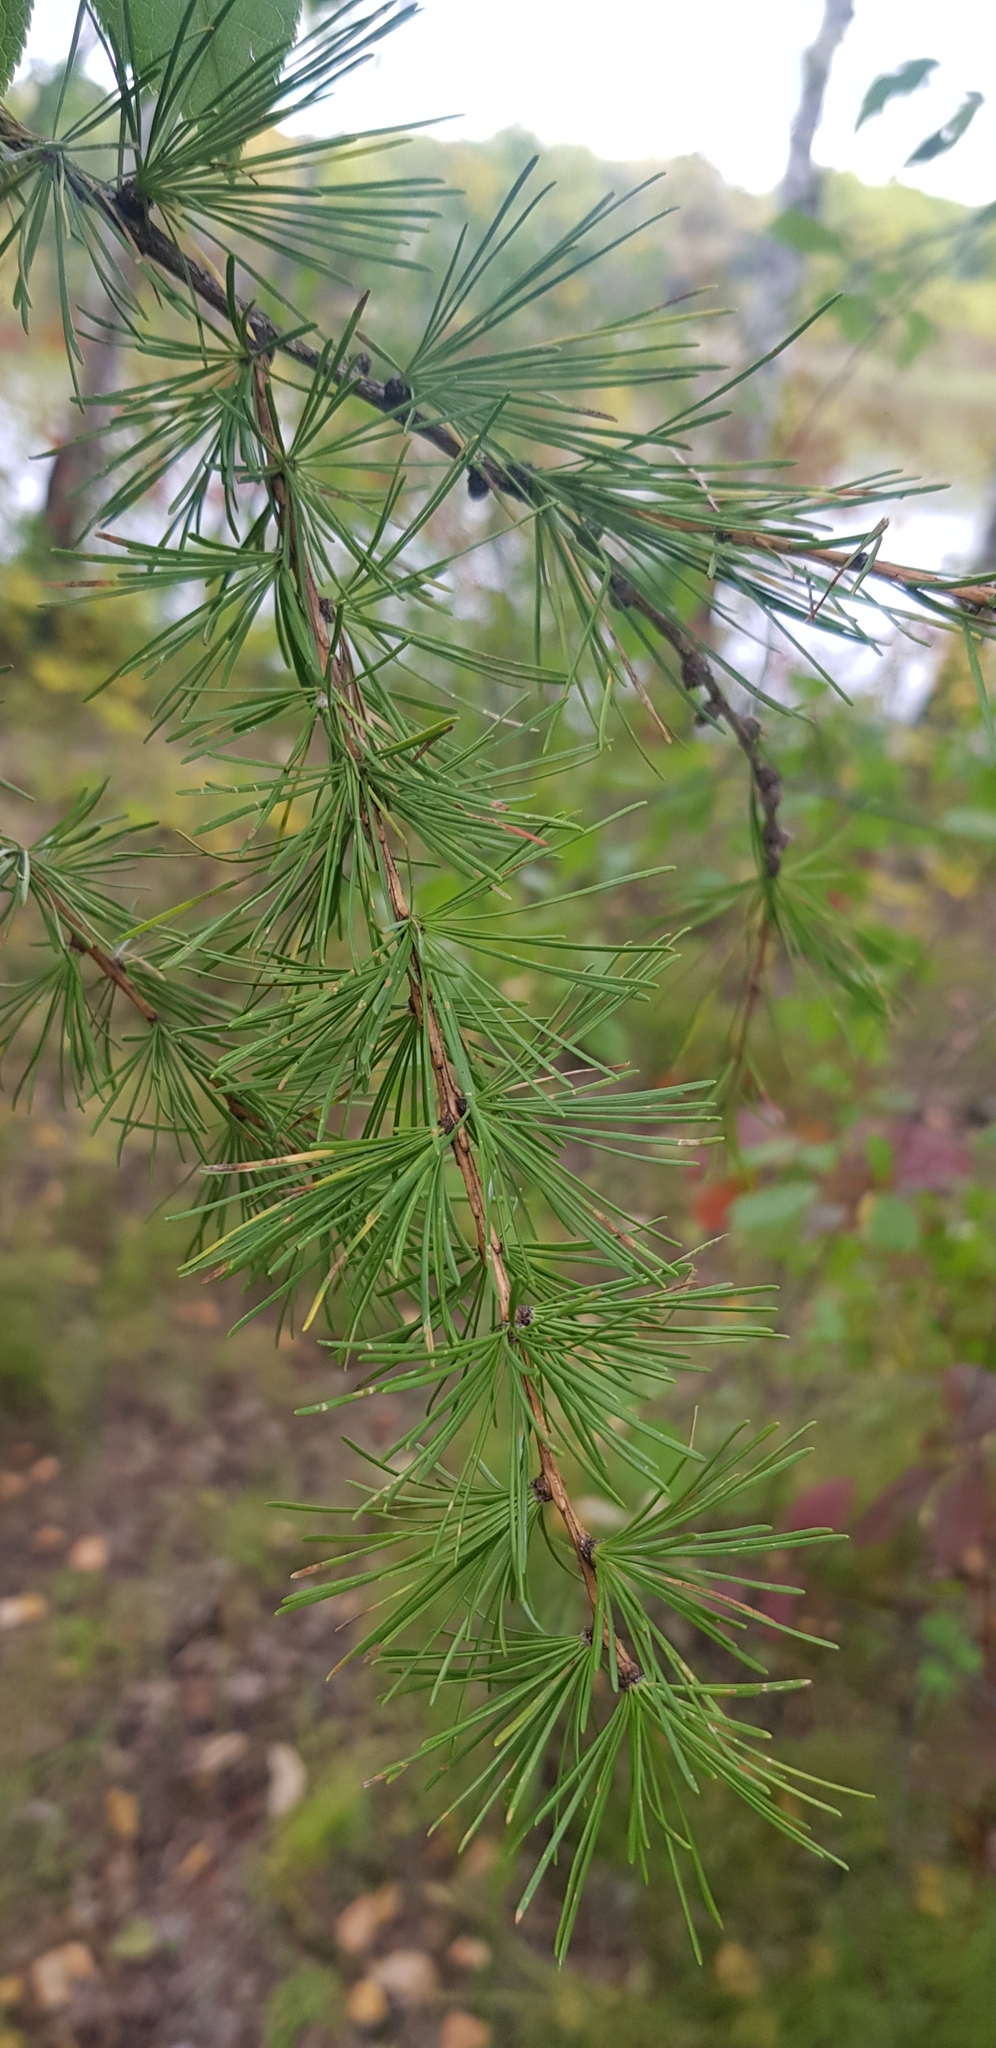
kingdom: Plantae
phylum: Tracheophyta
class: Pinopsida
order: Pinales
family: Pinaceae
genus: Larix
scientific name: Larix gmelinii
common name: Dahurian larch
